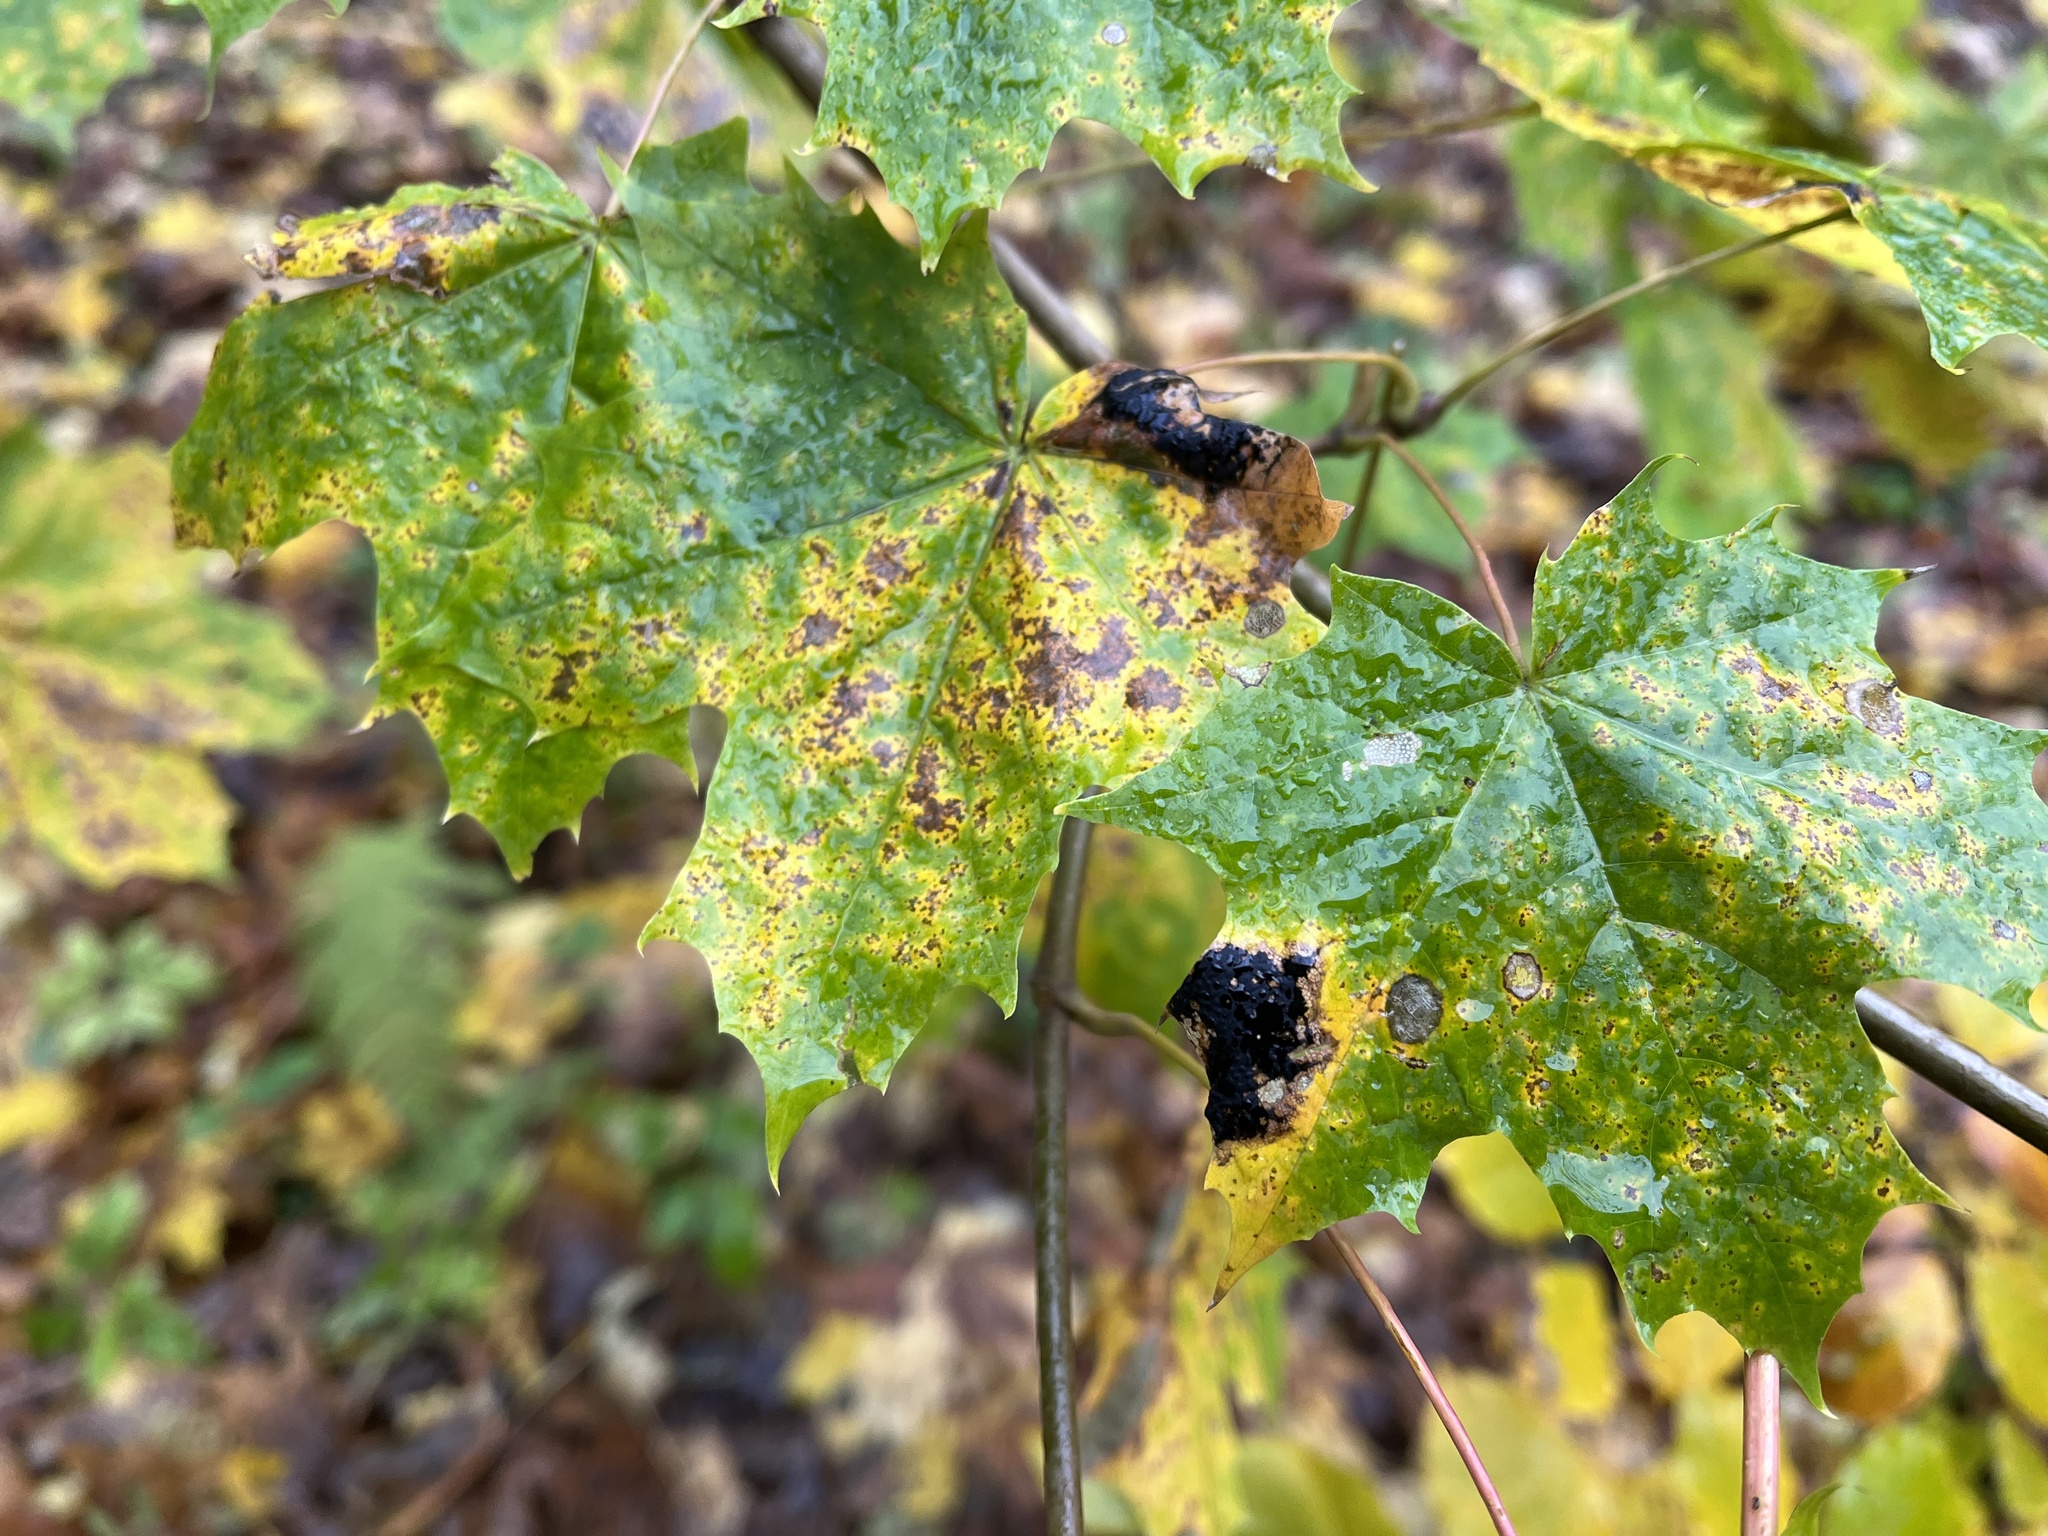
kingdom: Fungi
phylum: Ascomycota
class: Leotiomycetes
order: Rhytismatales
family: Rhytismataceae
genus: Rhytisma
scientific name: Rhytisma acerinum
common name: European tar spot
